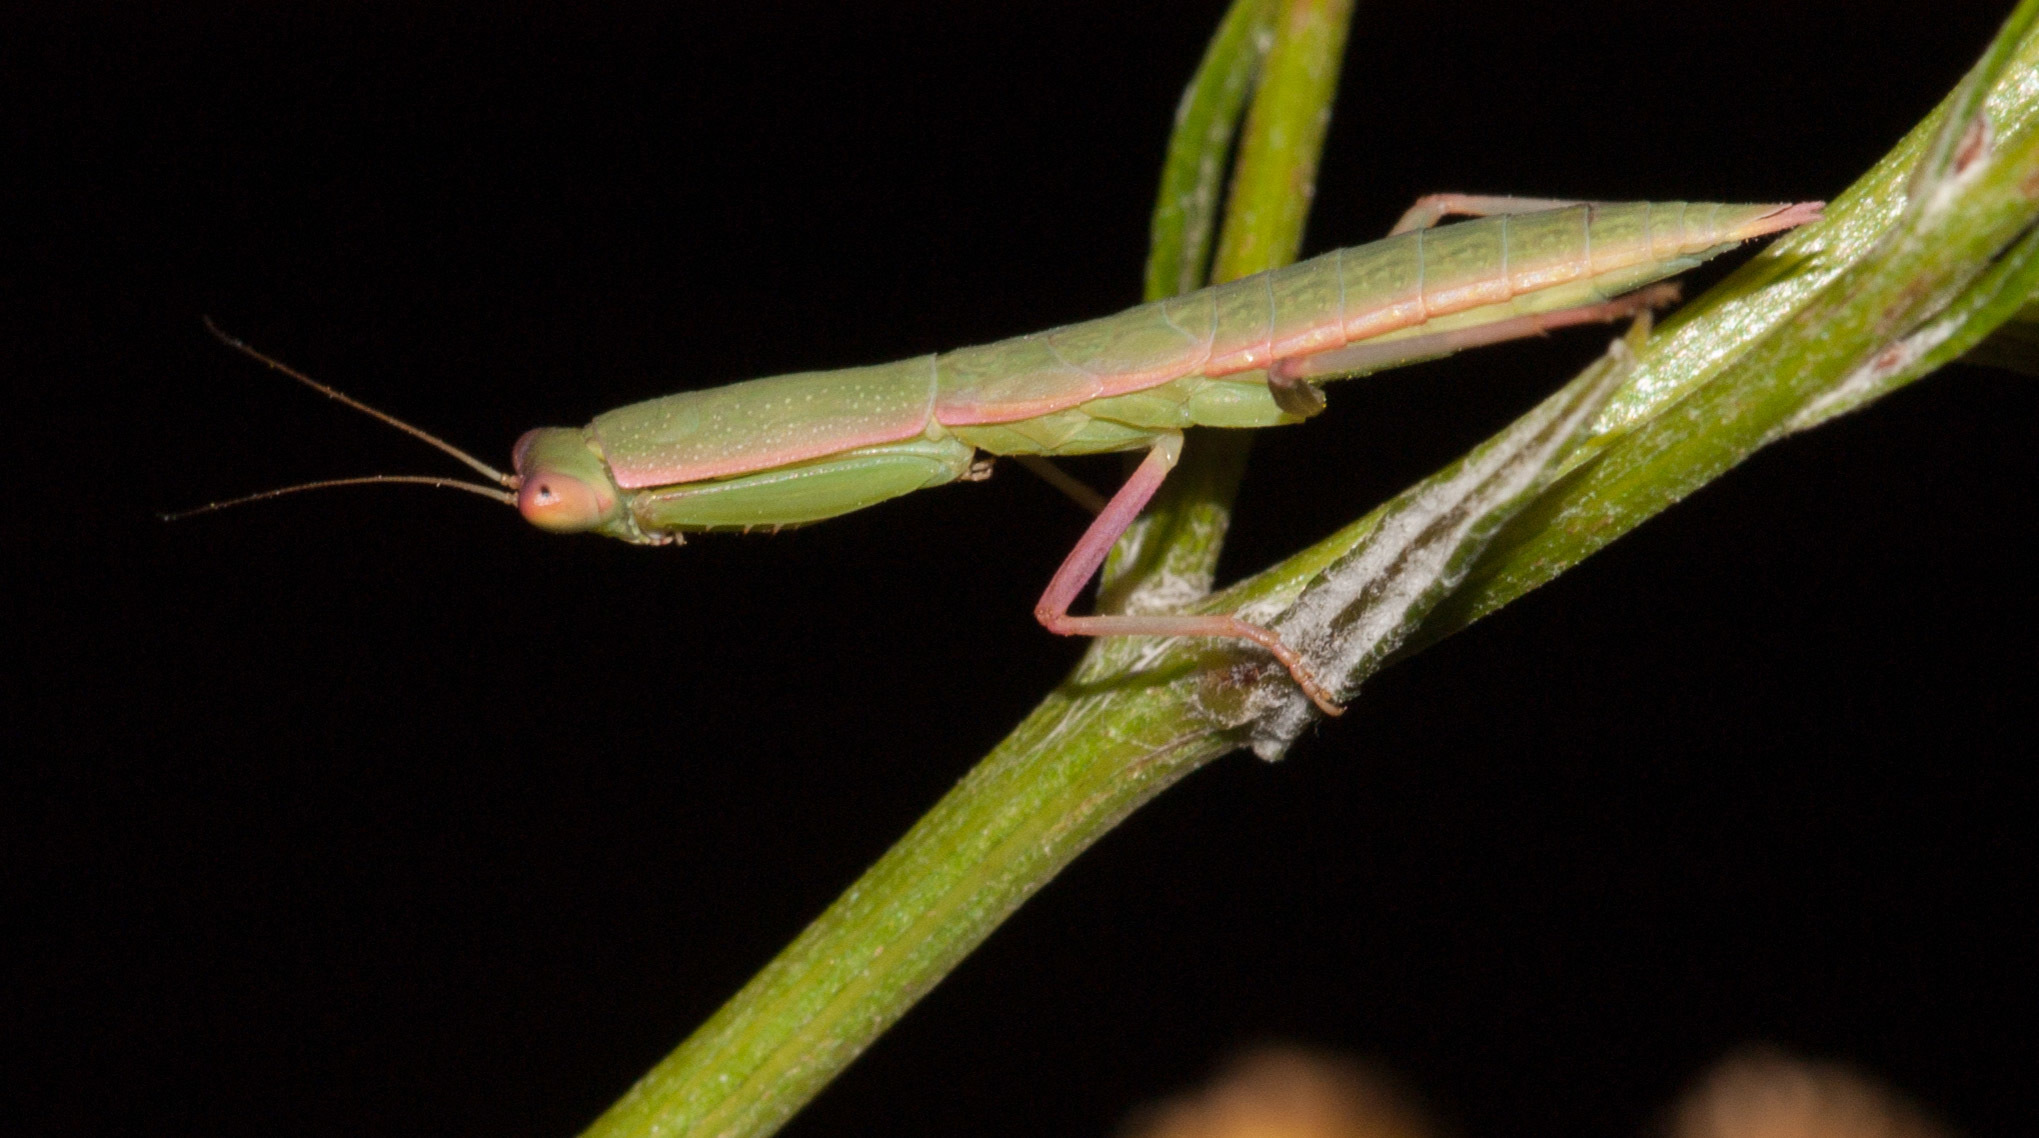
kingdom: Animalia
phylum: Arthropoda
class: Insecta
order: Mantodea
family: Mantidae
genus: Orthodera
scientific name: Orthodera ministralis
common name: Mantis
